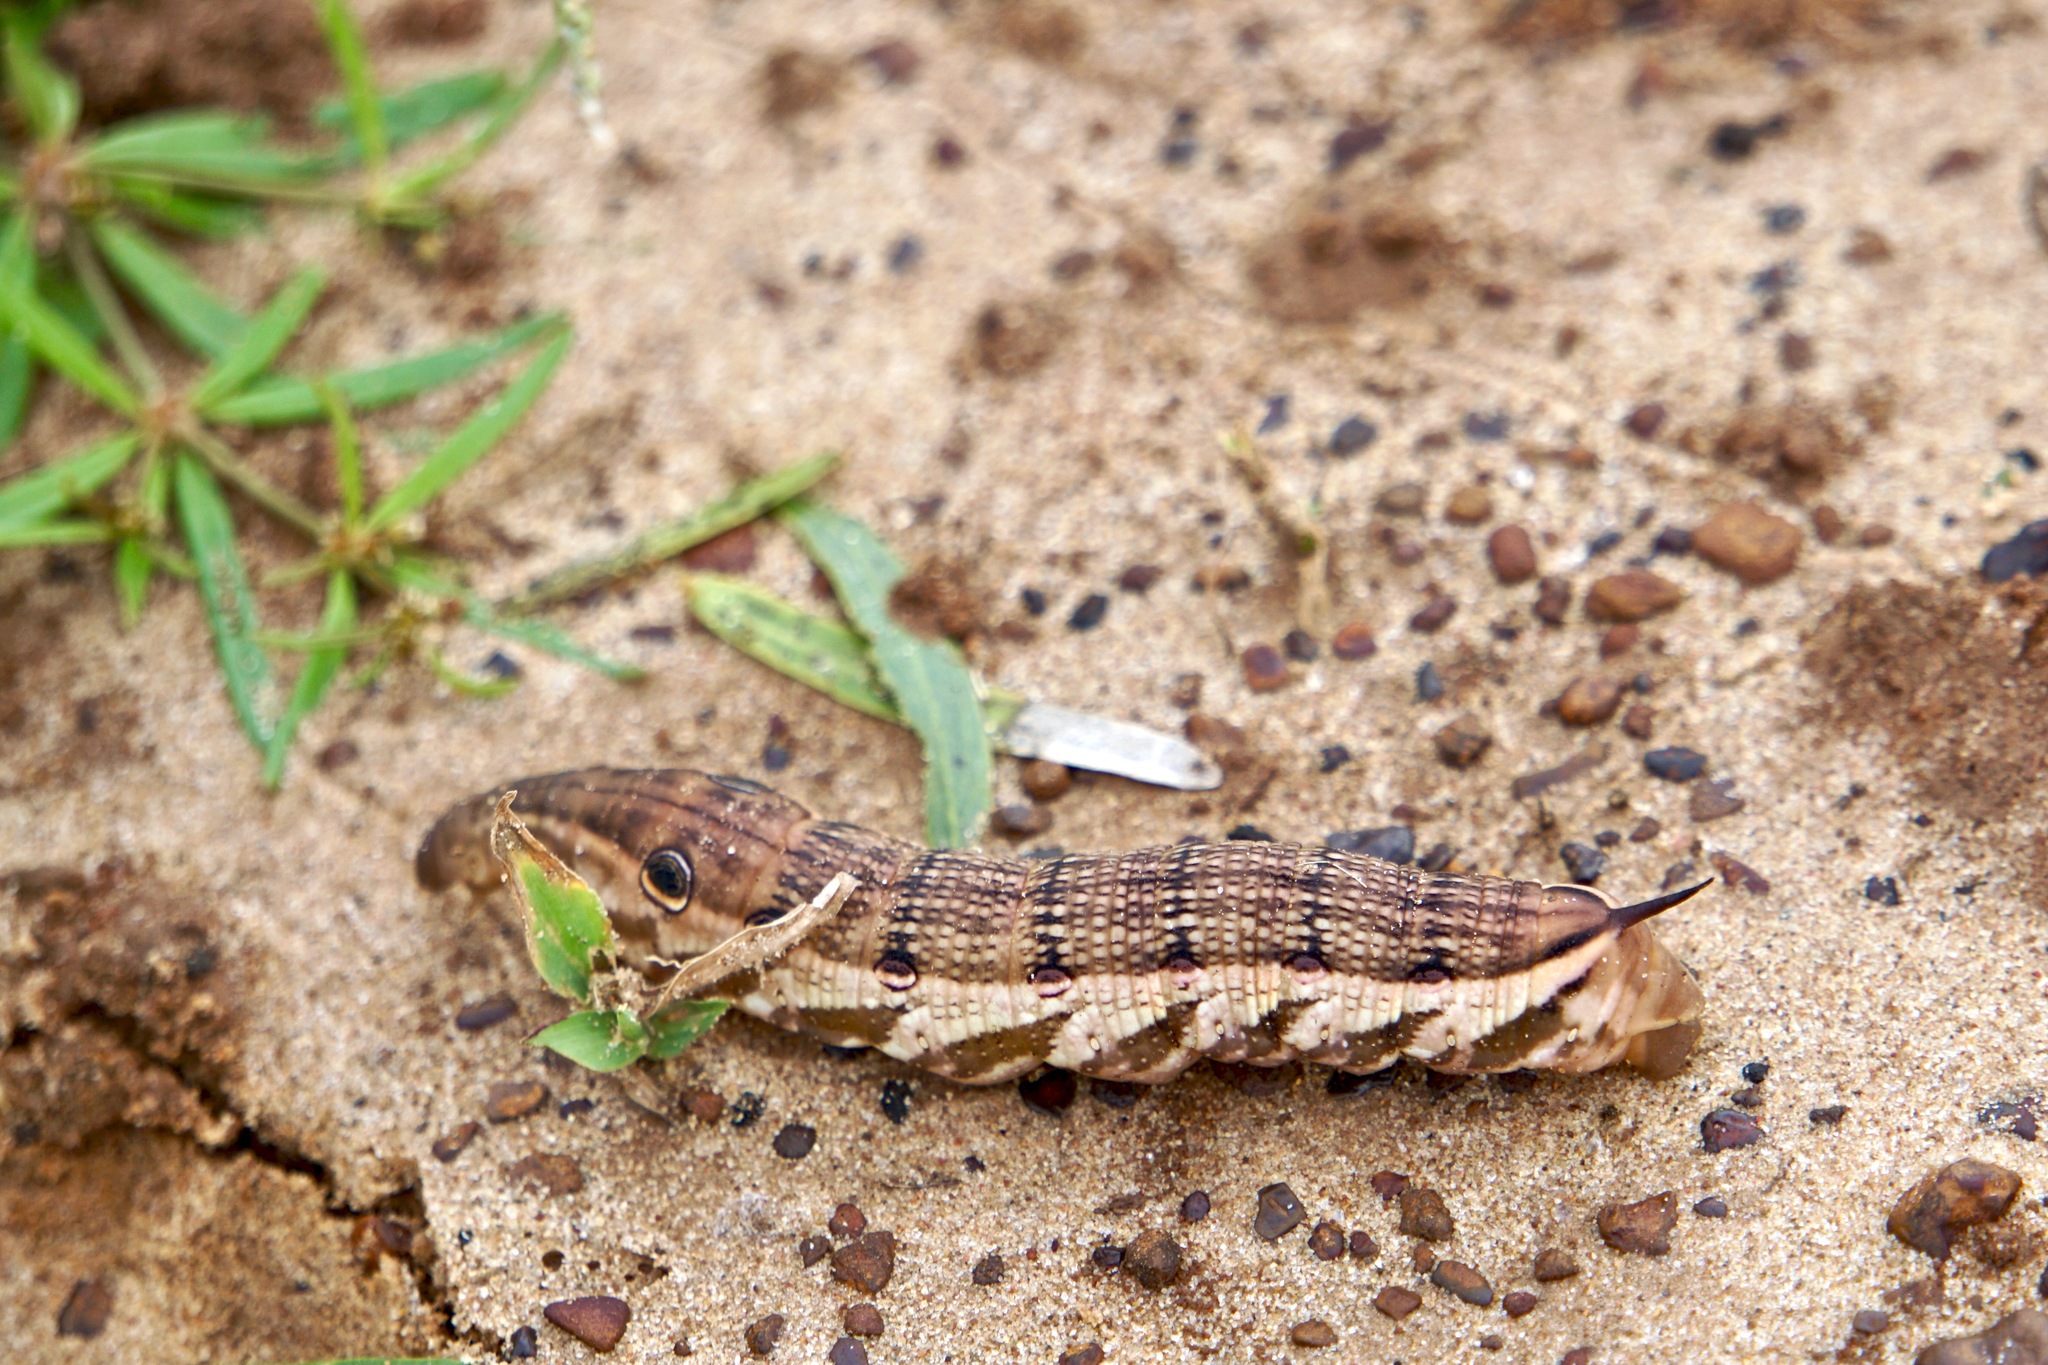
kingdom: Animalia
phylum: Arthropoda
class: Insecta
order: Lepidoptera
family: Sphingidae
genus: Xylophanes
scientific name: Xylophanes tersa
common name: Tersa sphinx
